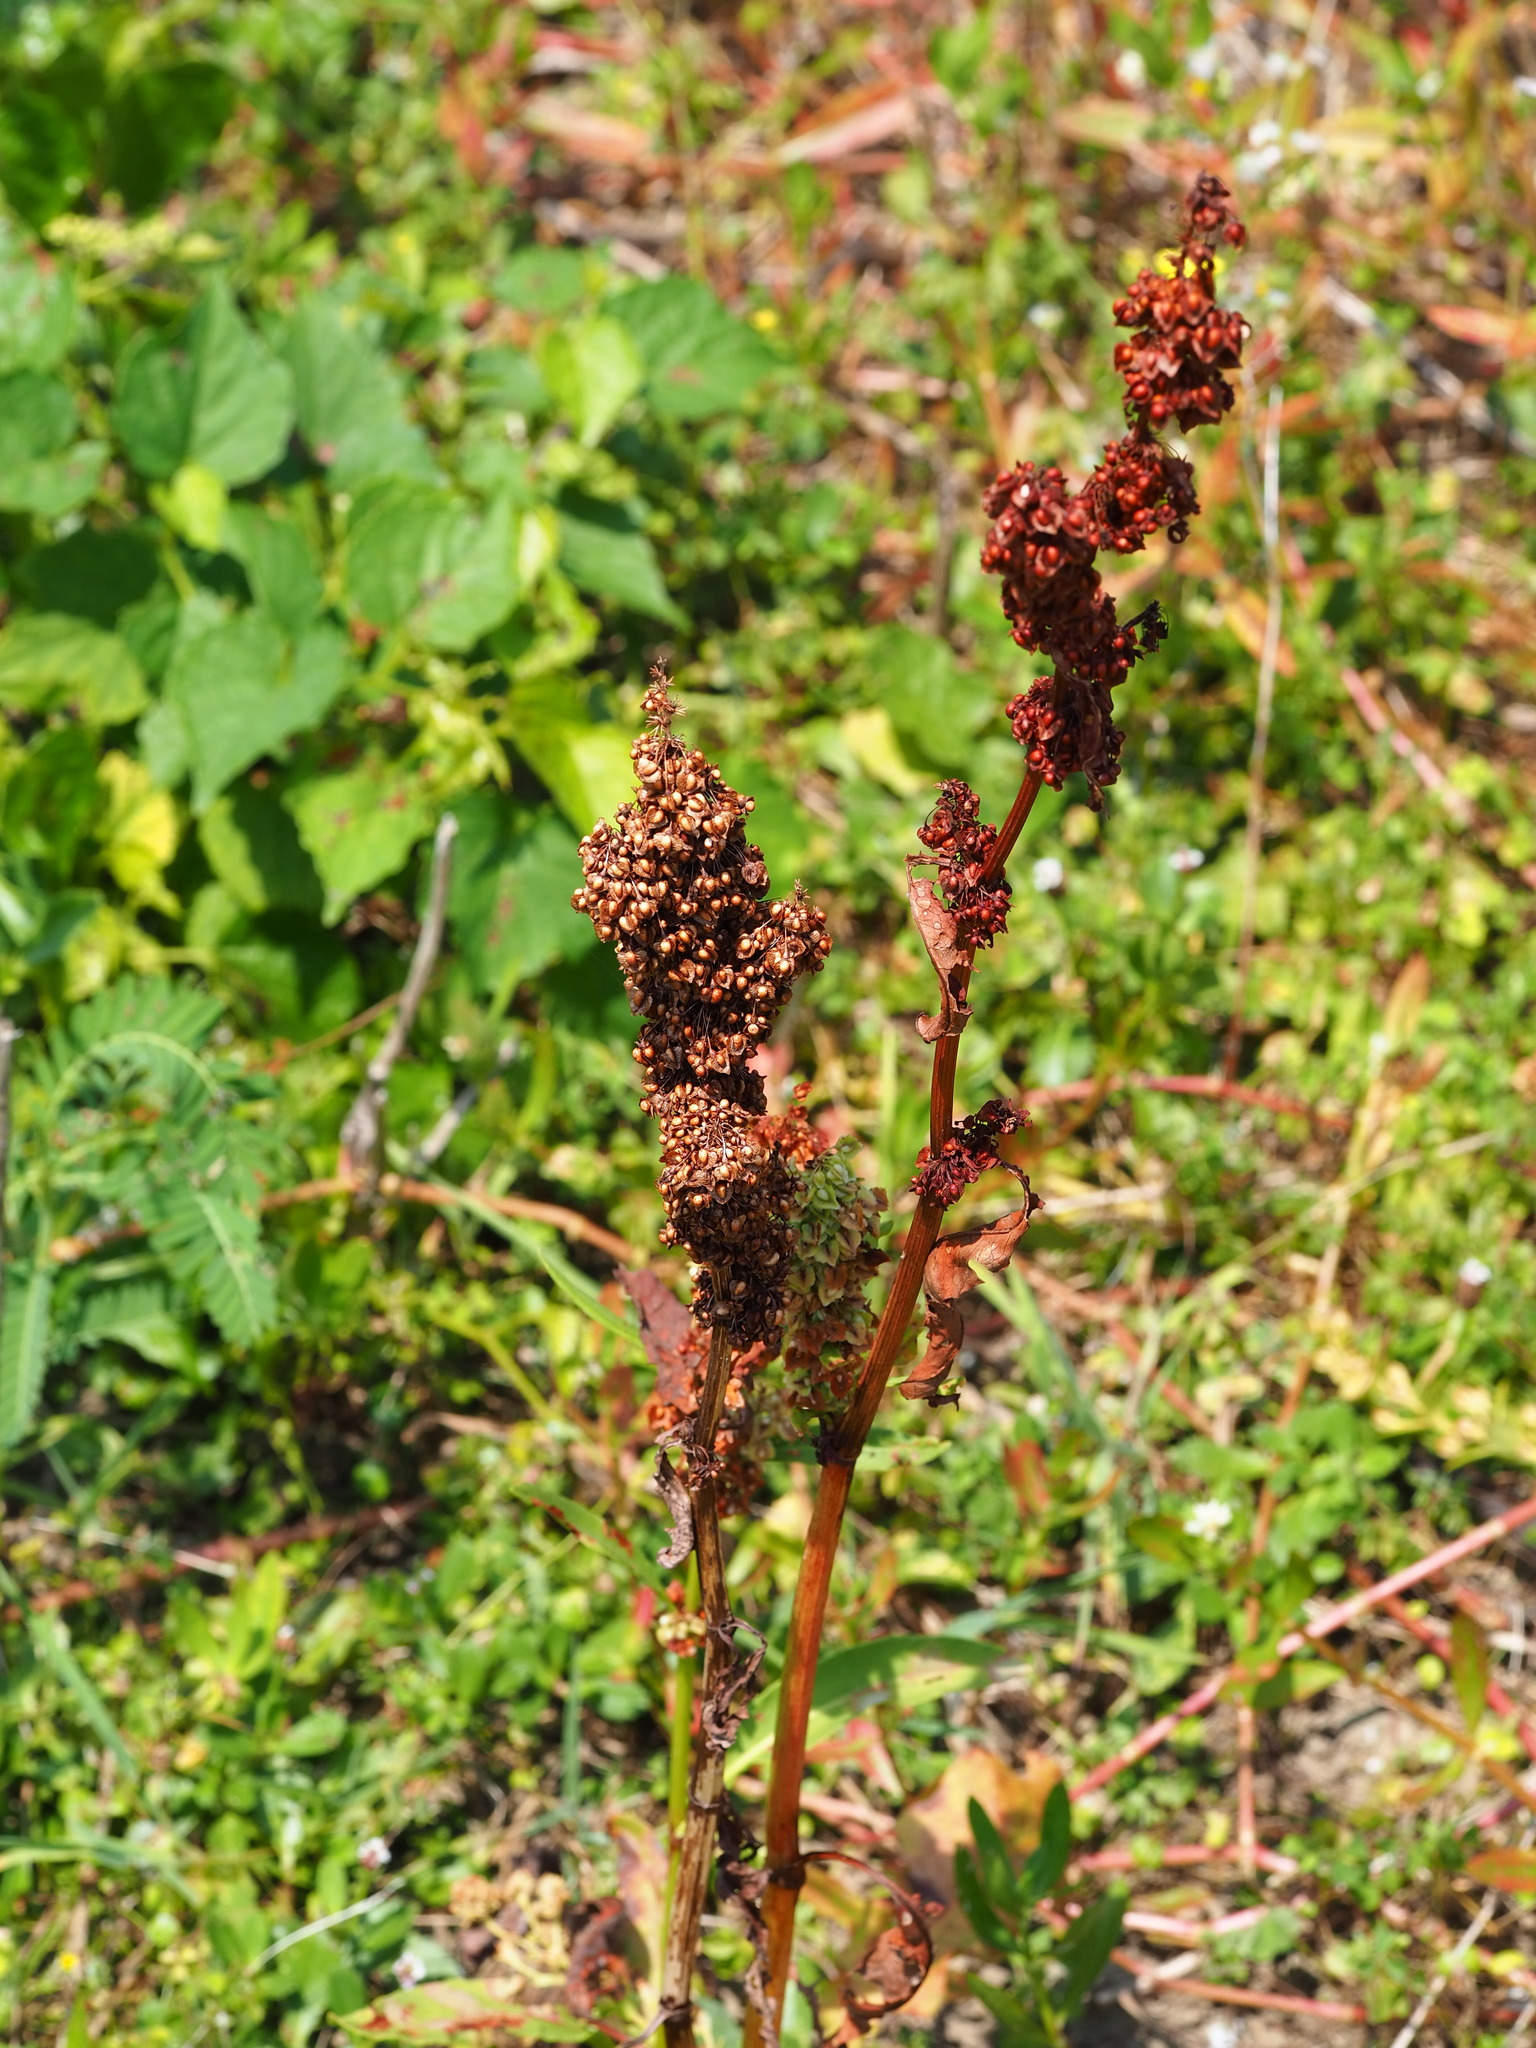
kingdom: Plantae
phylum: Tracheophyta
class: Magnoliopsida
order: Caryophyllales
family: Polygonaceae
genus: Rumex
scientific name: Rumex japonicus
